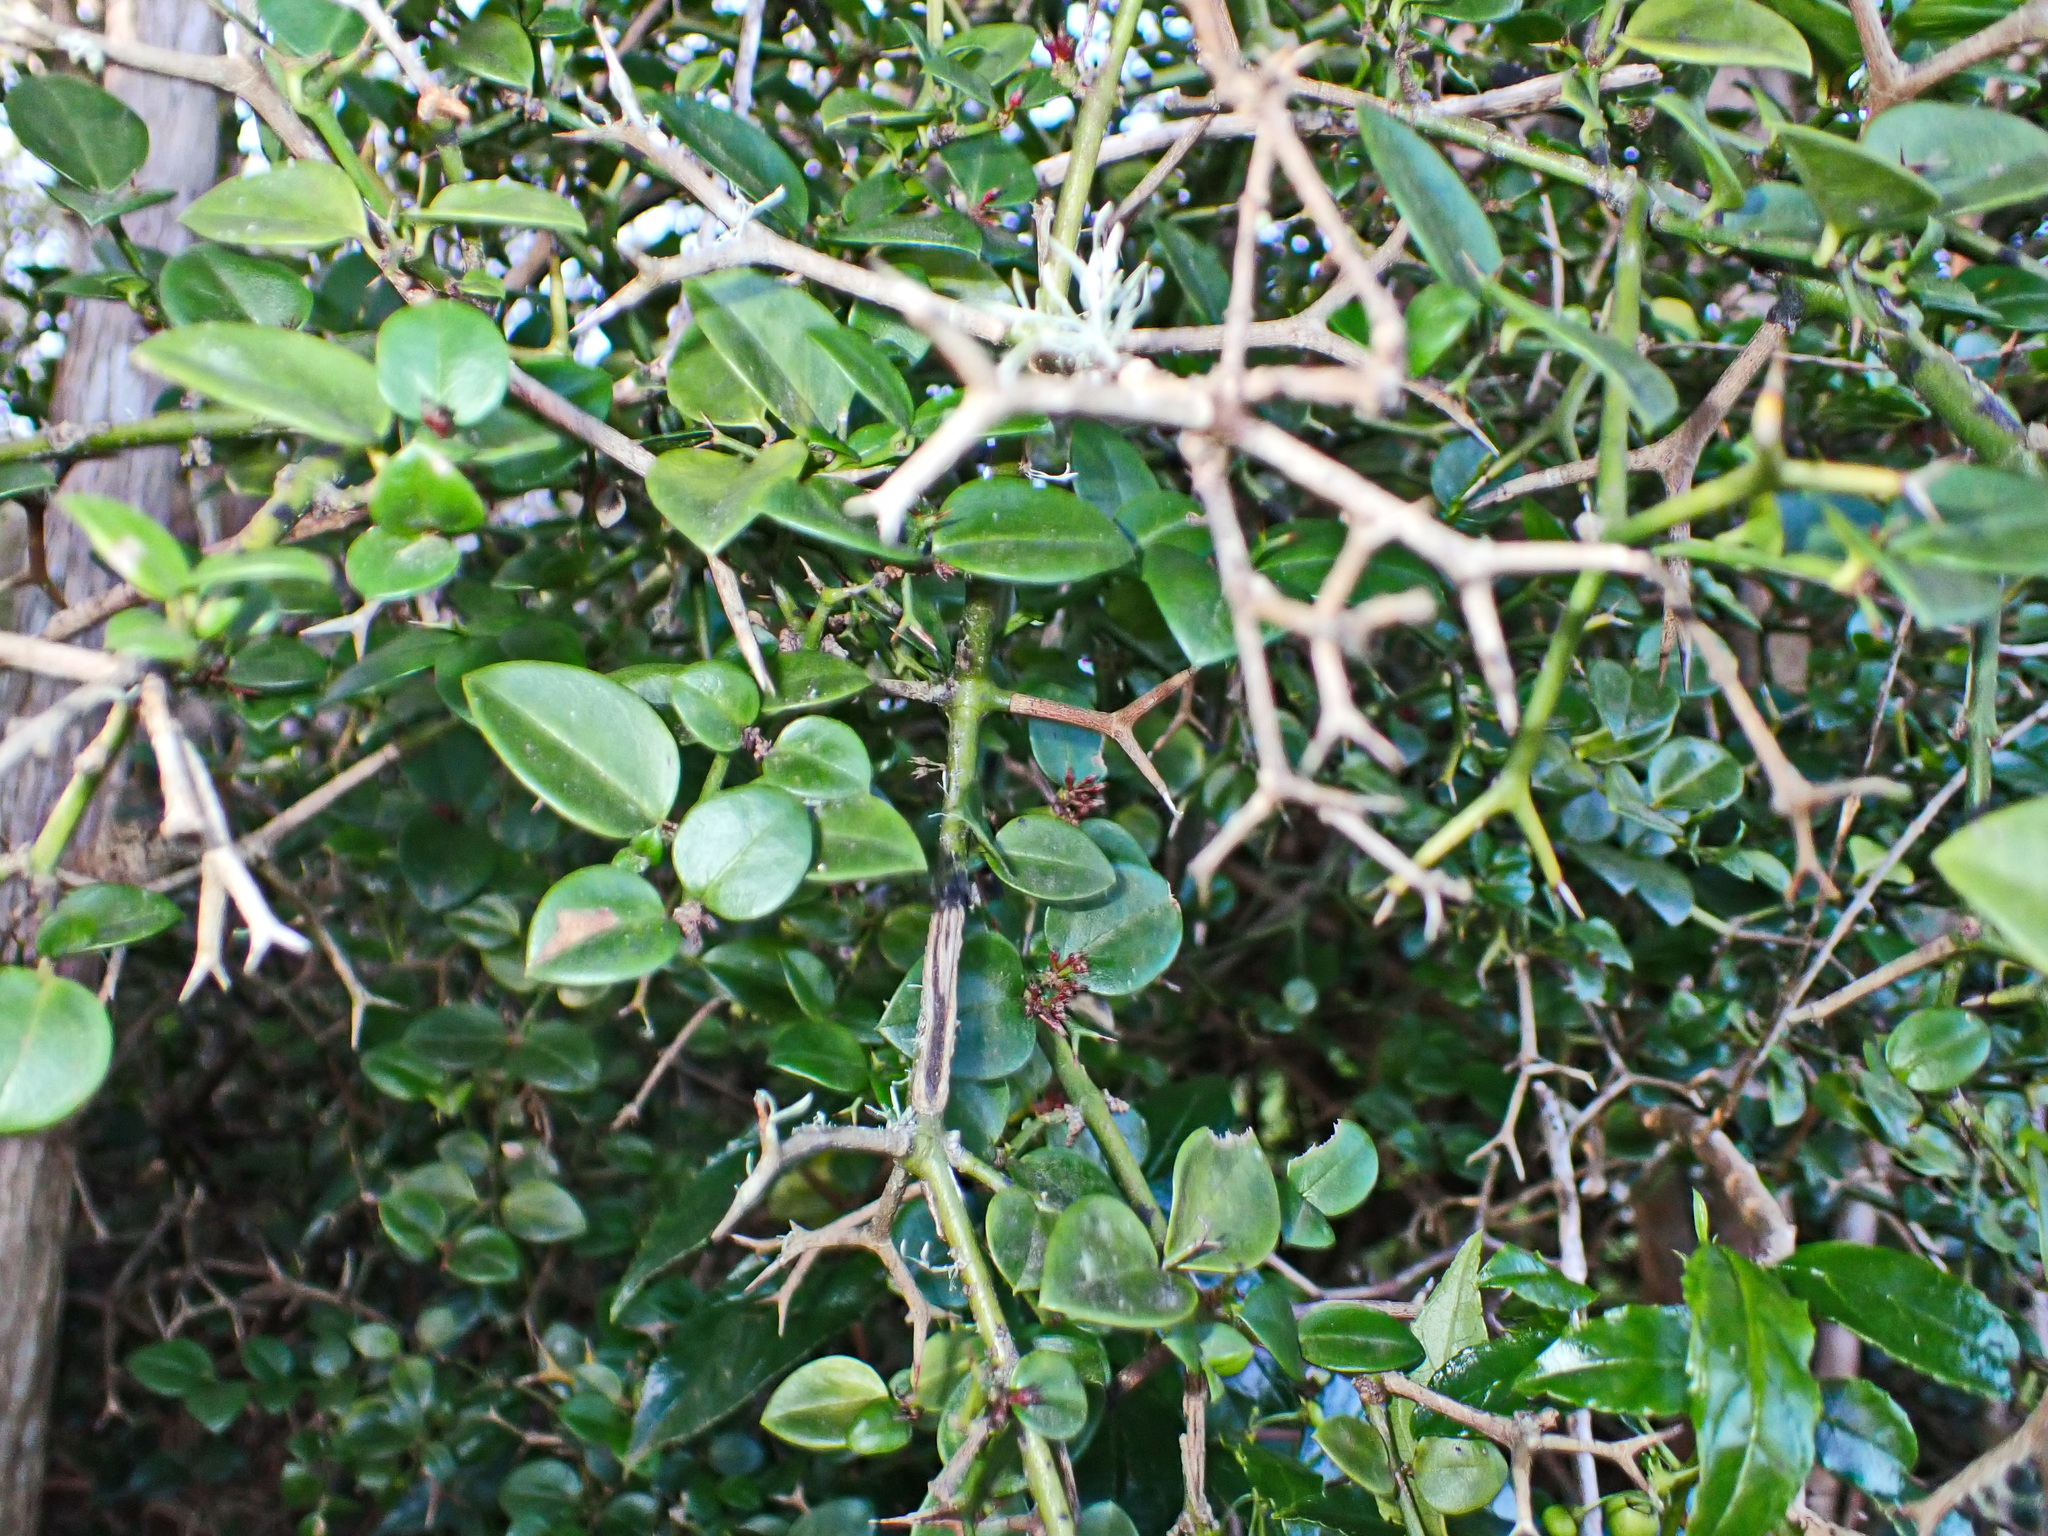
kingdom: Plantae
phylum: Tracheophyta
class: Magnoliopsida
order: Gentianales
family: Apocynaceae
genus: Carissa
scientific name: Carissa bispinosa
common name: Forest num-num
